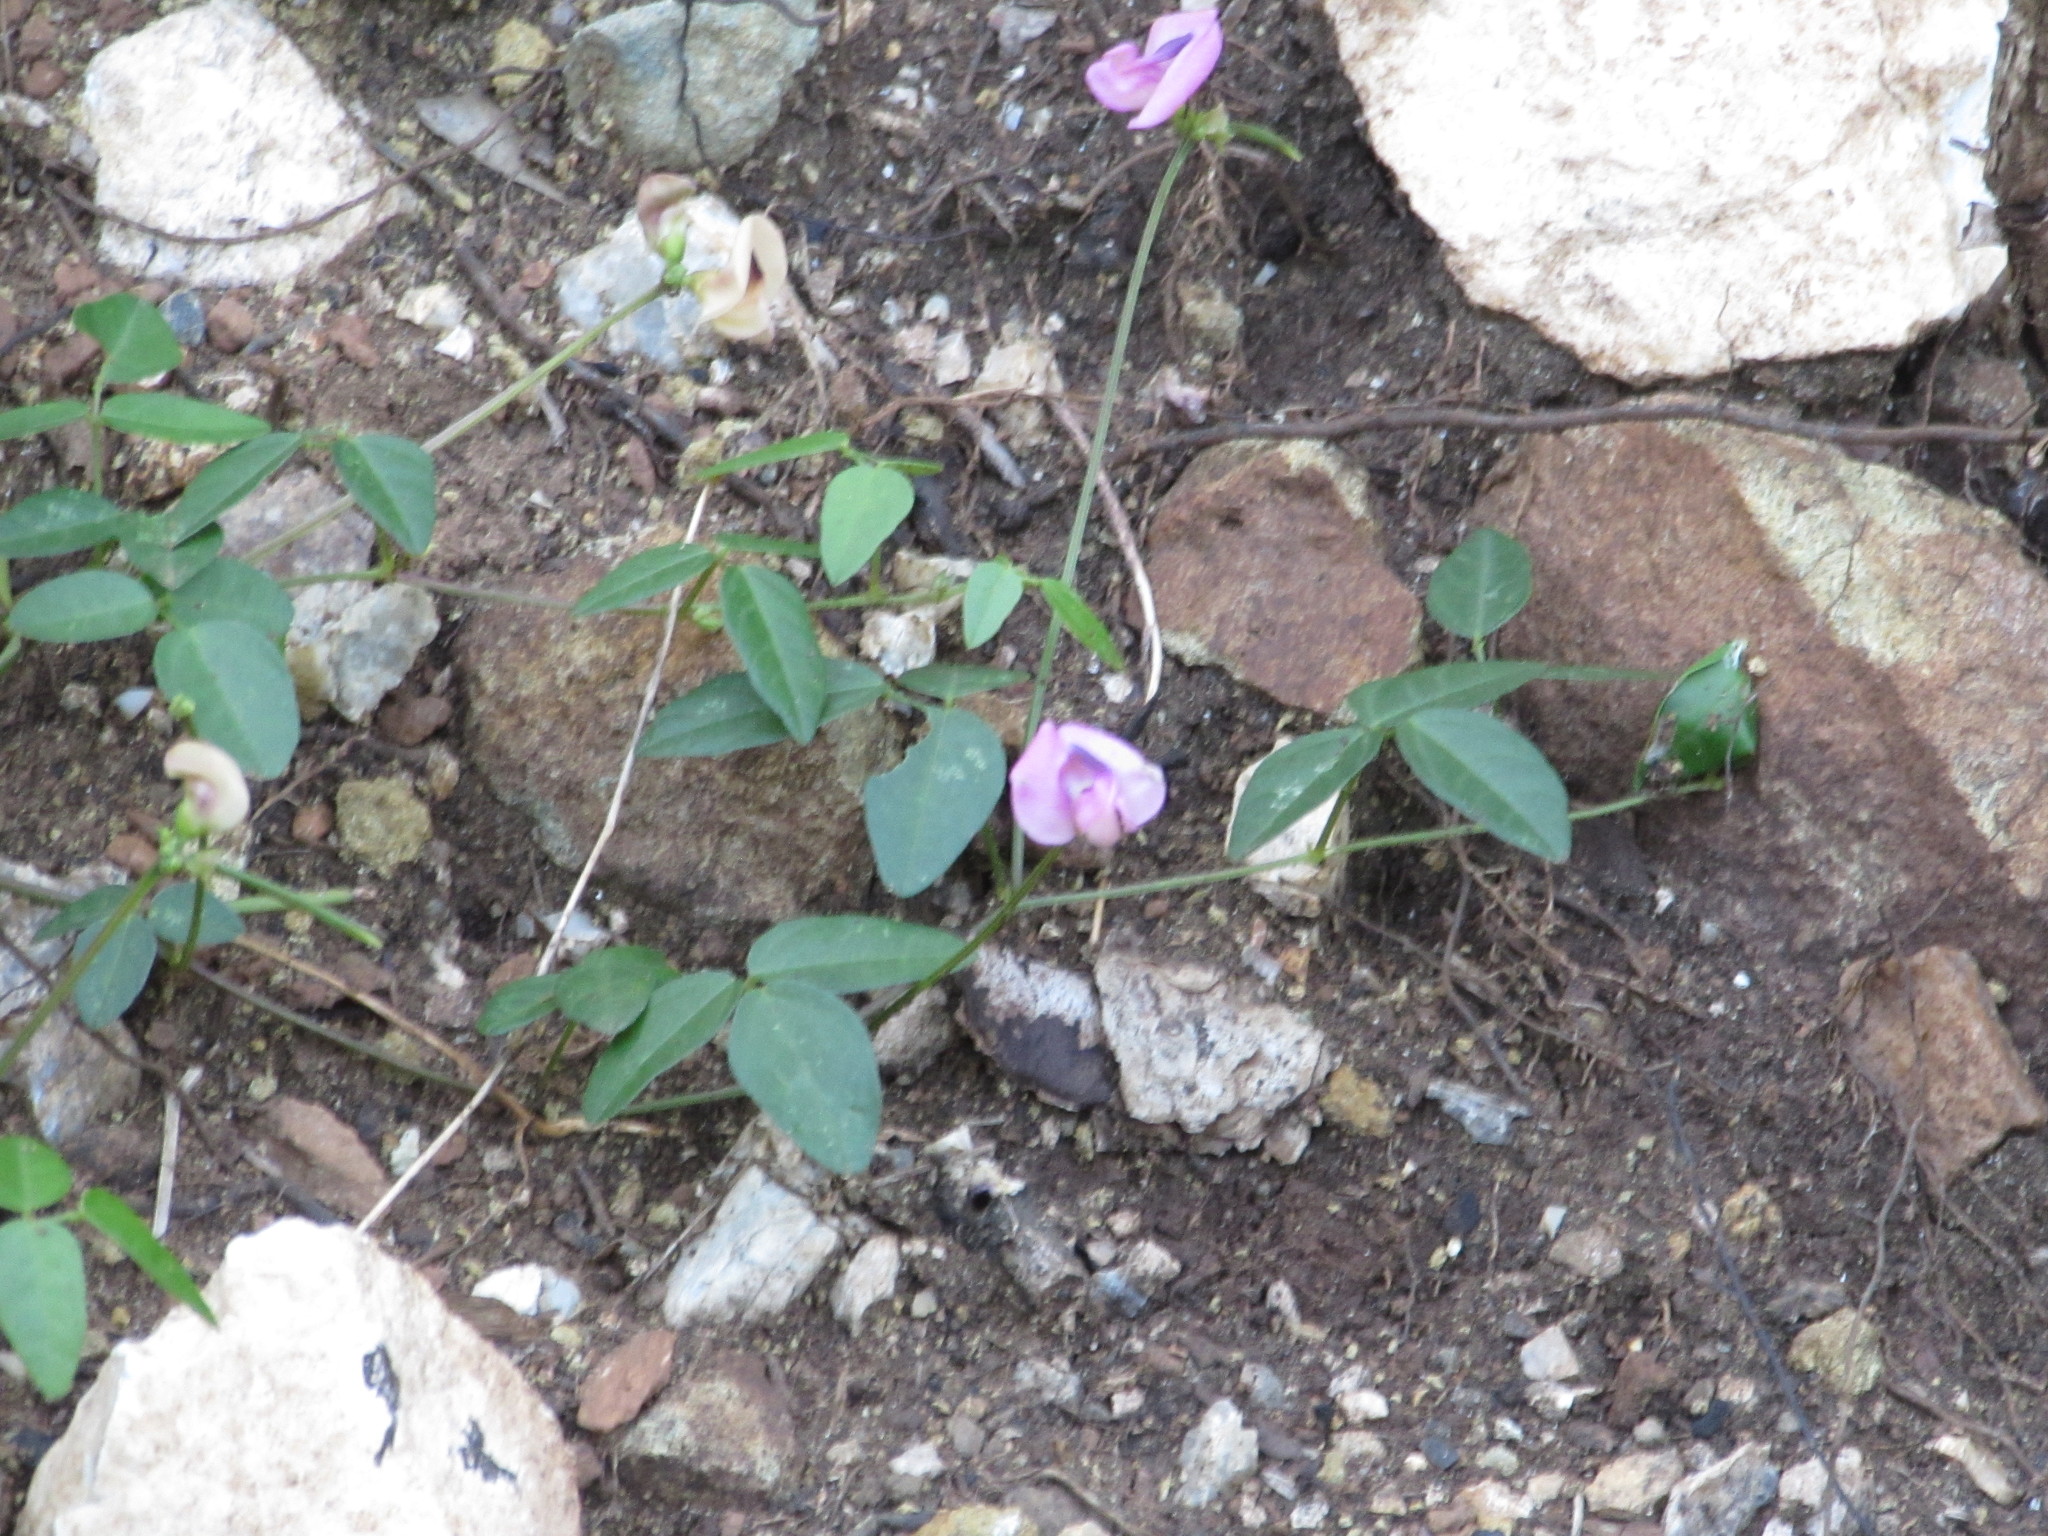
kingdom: Plantae
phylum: Tracheophyta
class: Magnoliopsida
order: Fabales
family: Fabaceae
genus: Strophostyles
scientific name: Strophostyles umbellata
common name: Perennial wild bean
